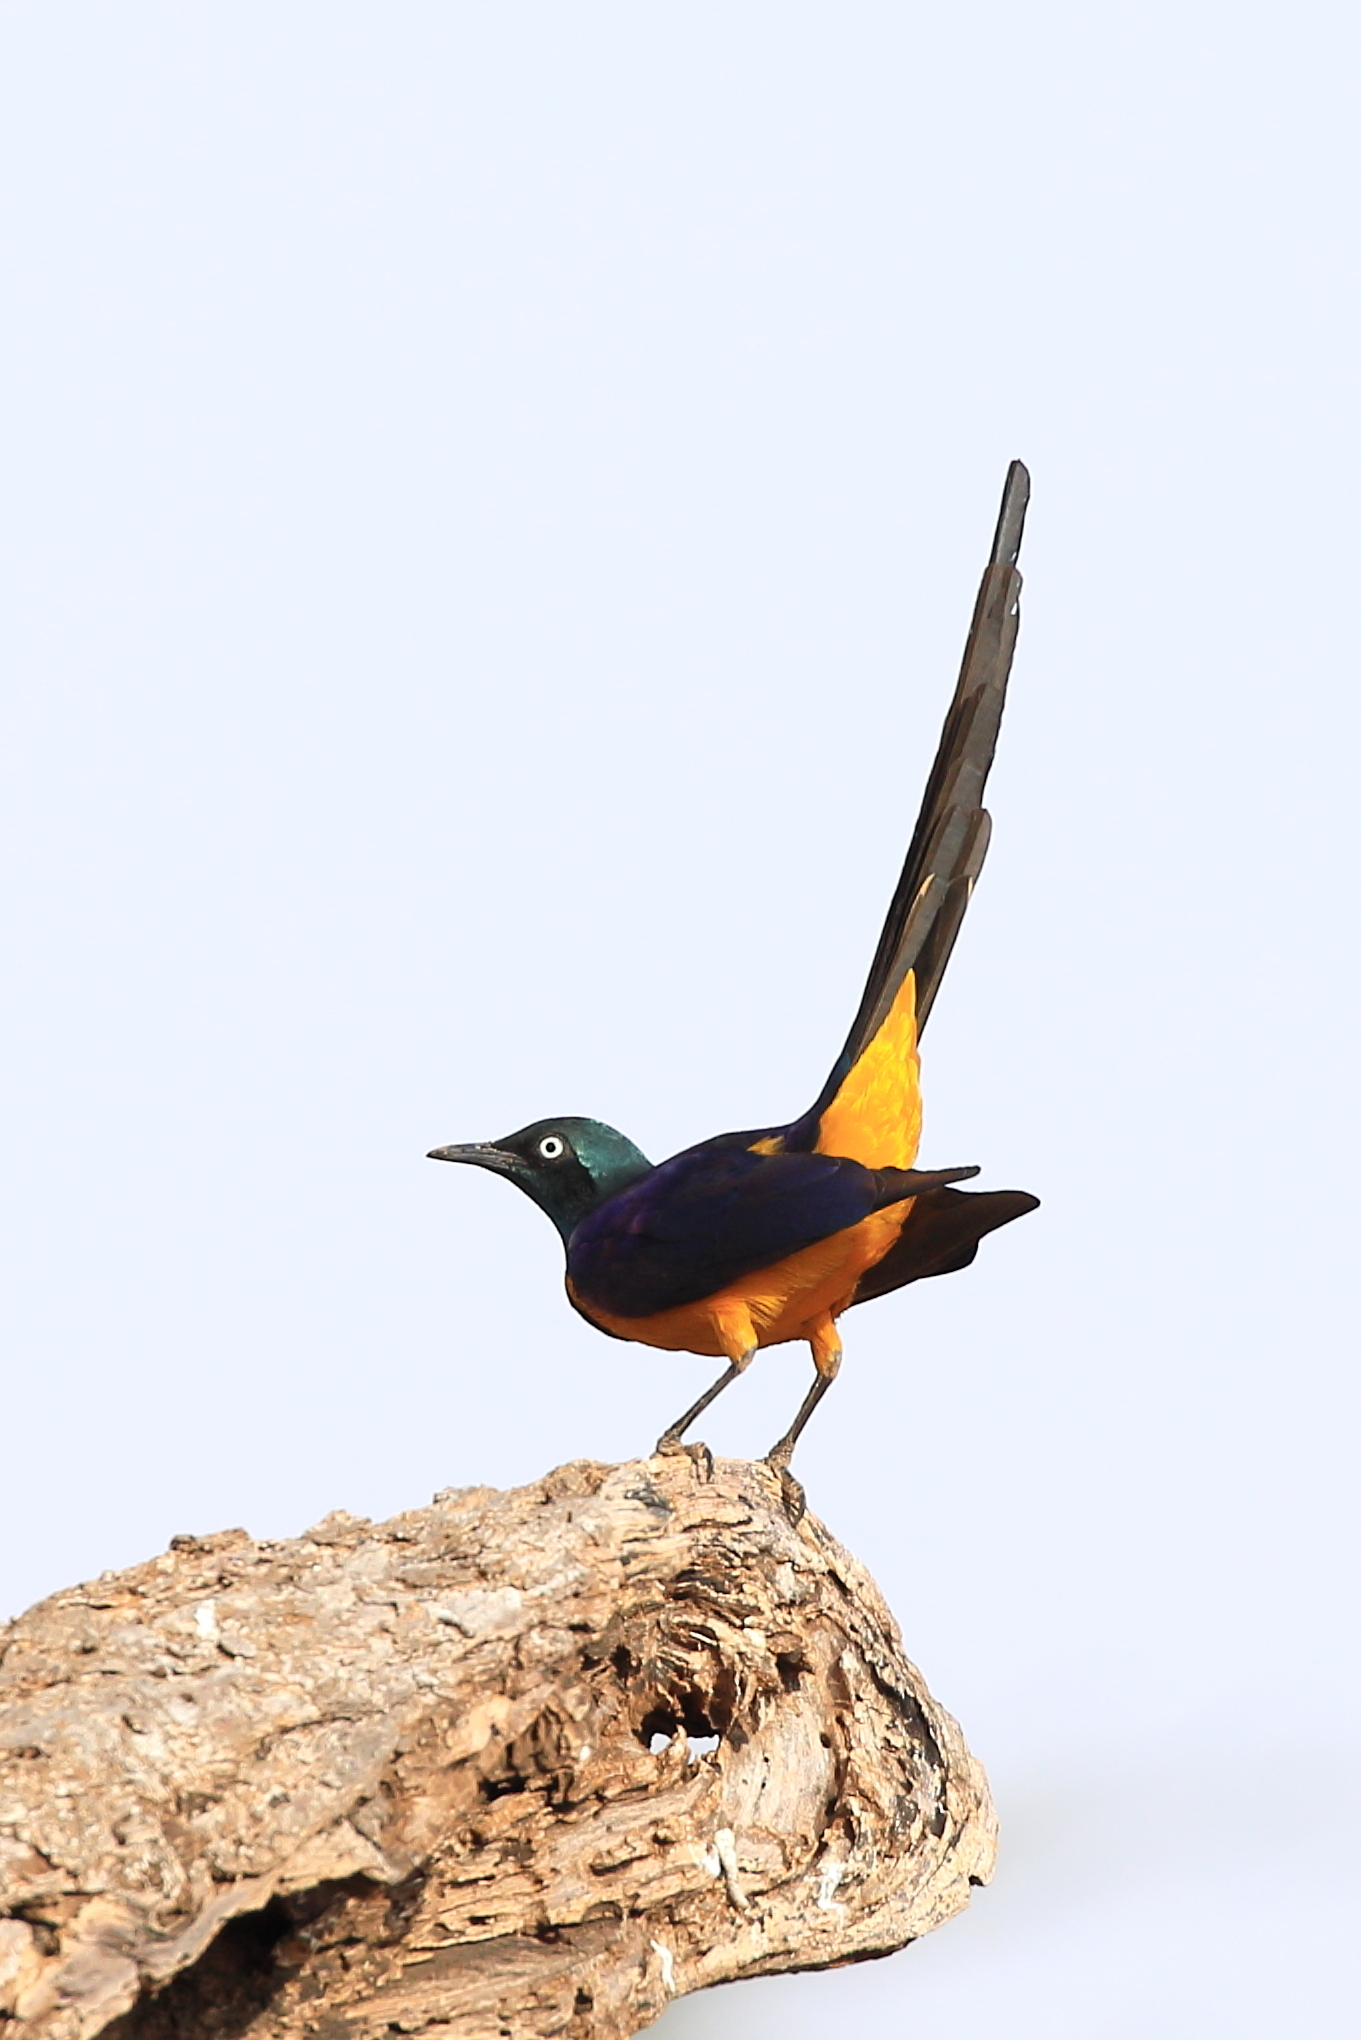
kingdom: Animalia
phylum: Chordata
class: Aves
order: Passeriformes
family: Sturnidae
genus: Lamprotornis
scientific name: Lamprotornis regius
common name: Golden-breasted starling
